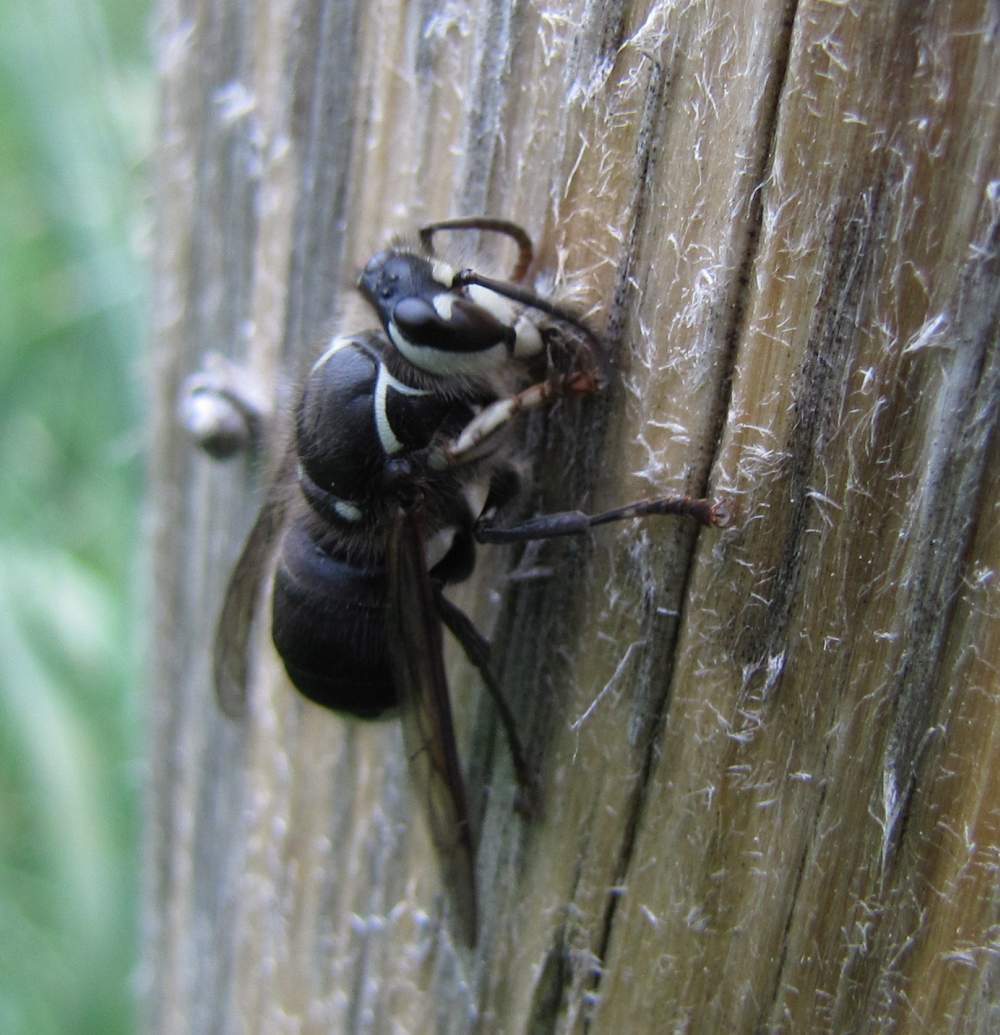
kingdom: Animalia
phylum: Arthropoda
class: Insecta
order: Hymenoptera
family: Vespidae
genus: Dolichovespula
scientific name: Dolichovespula maculata
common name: Bald-faced hornet
